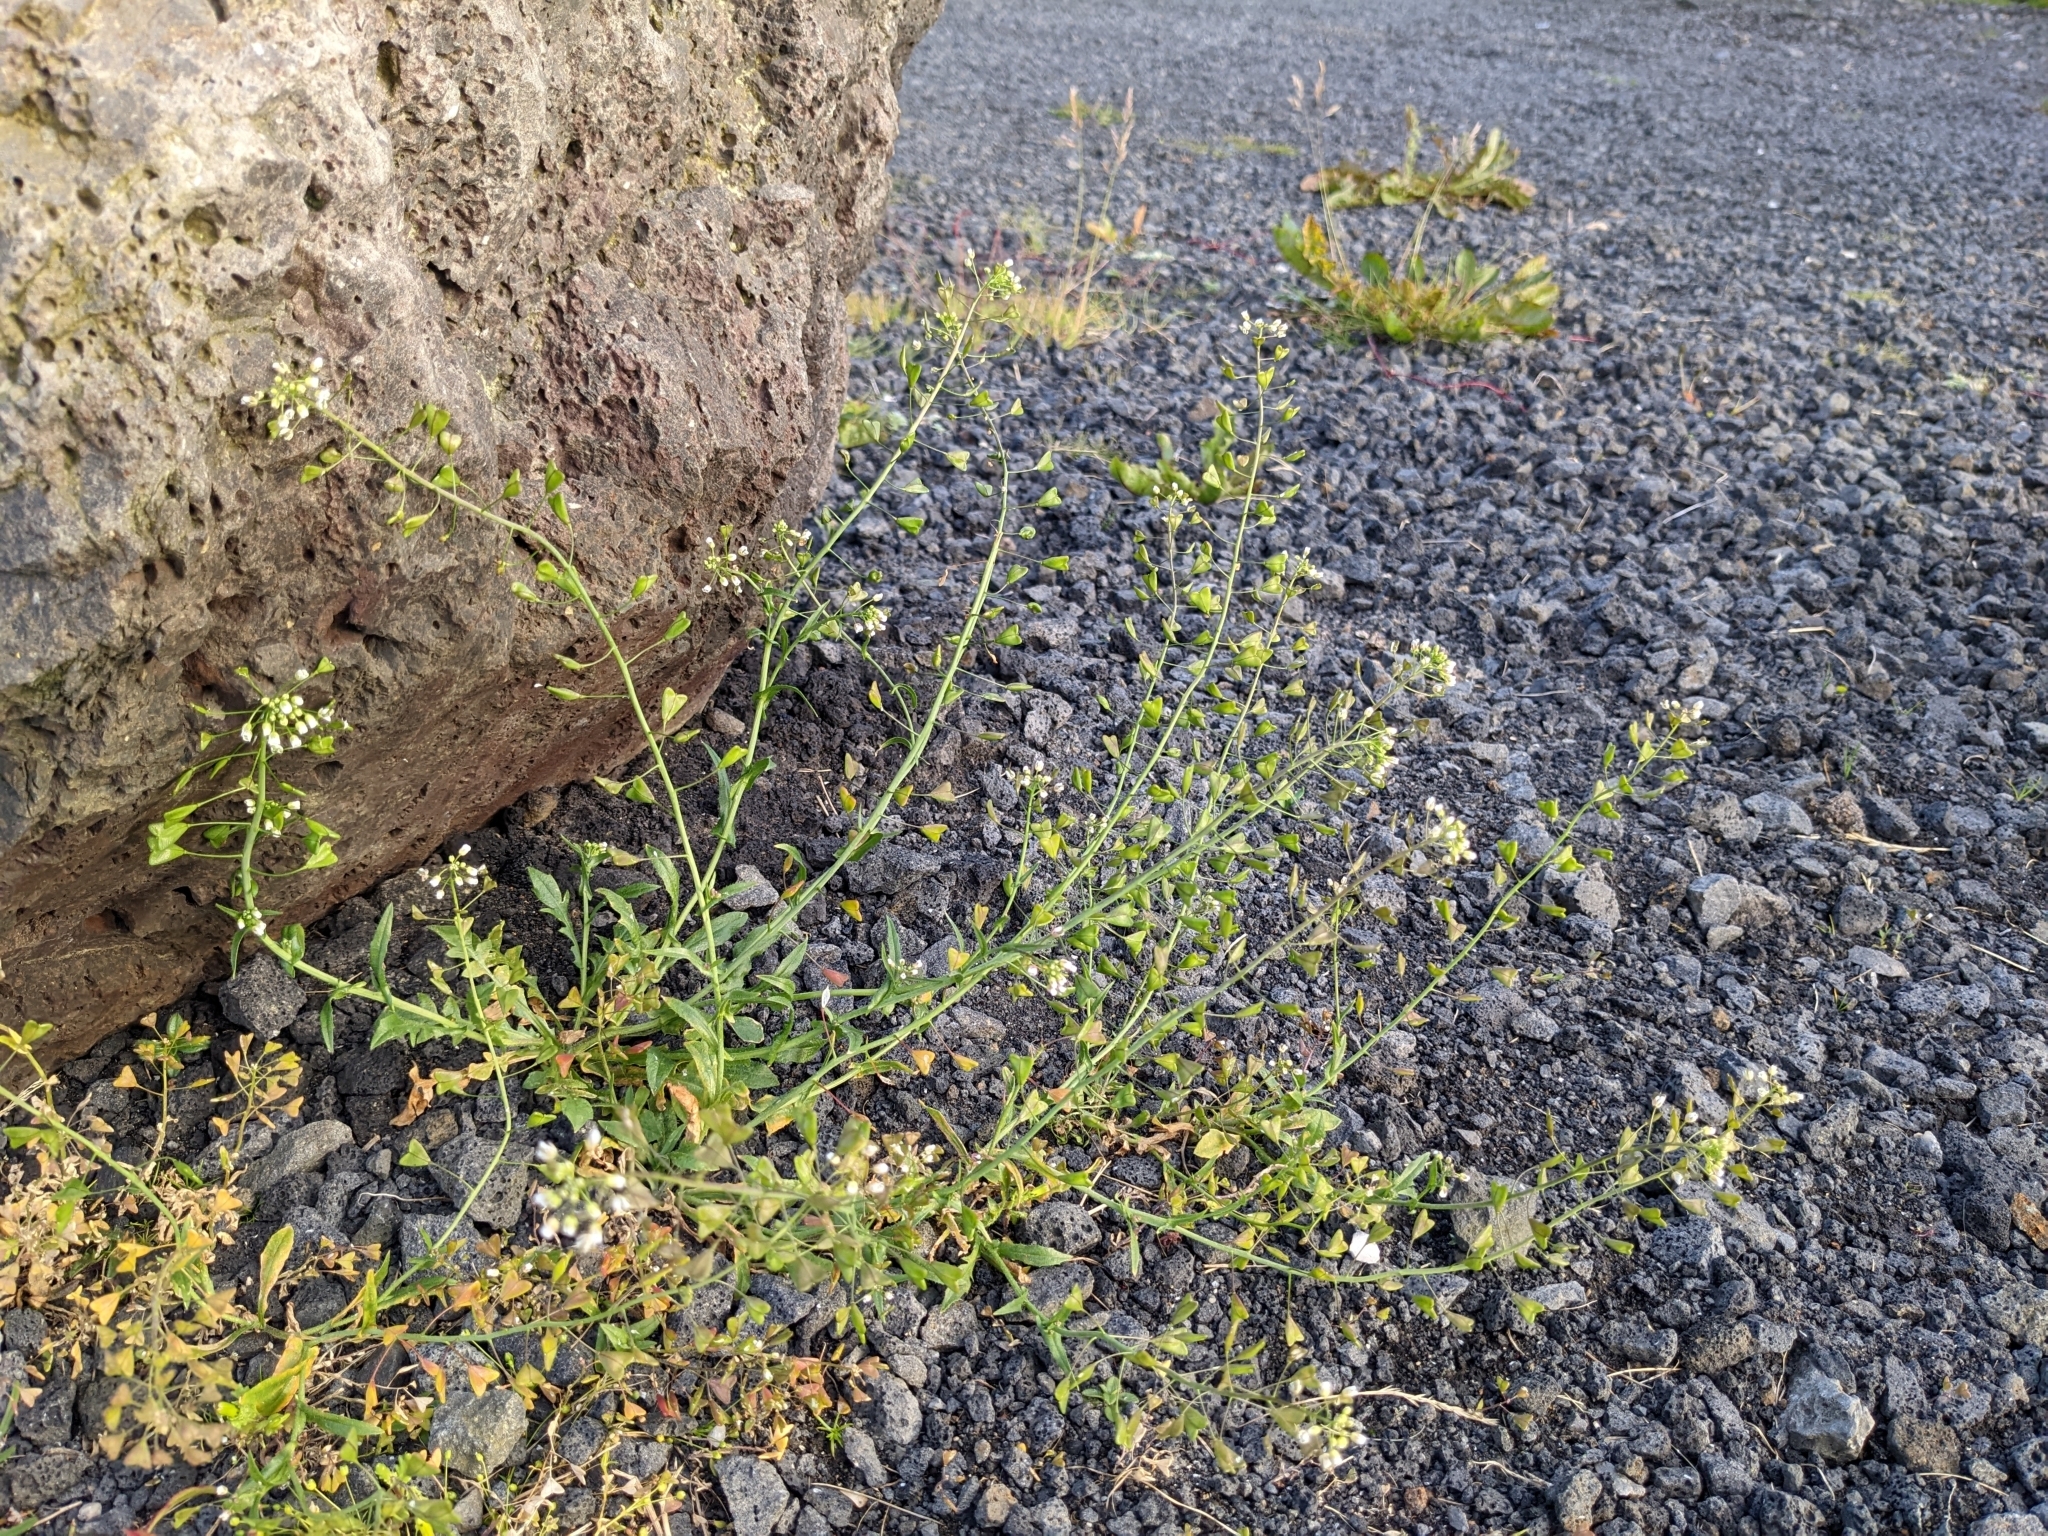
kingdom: Plantae
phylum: Tracheophyta
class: Magnoliopsida
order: Brassicales
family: Brassicaceae
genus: Capsella
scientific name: Capsella bursa-pastoris
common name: Shepherd's purse
